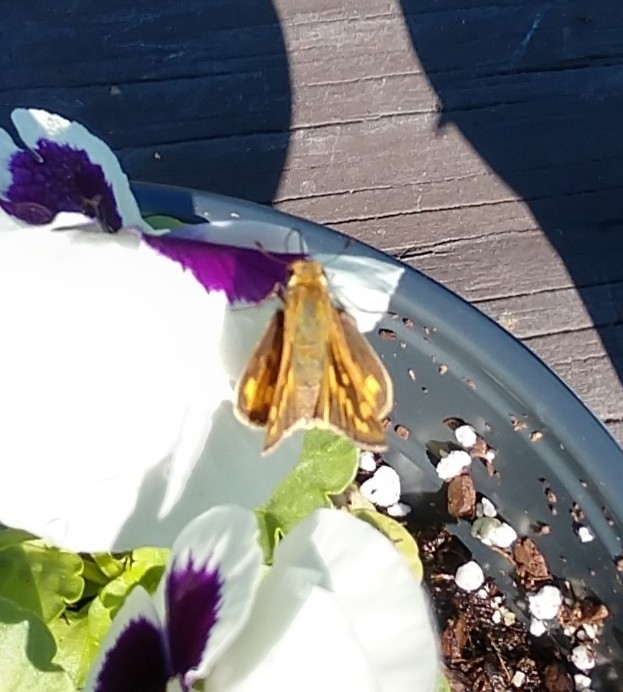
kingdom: Animalia
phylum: Arthropoda
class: Insecta
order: Lepidoptera
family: Hesperiidae
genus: Hylephila
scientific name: Hylephila phyleus
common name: Fiery skipper
